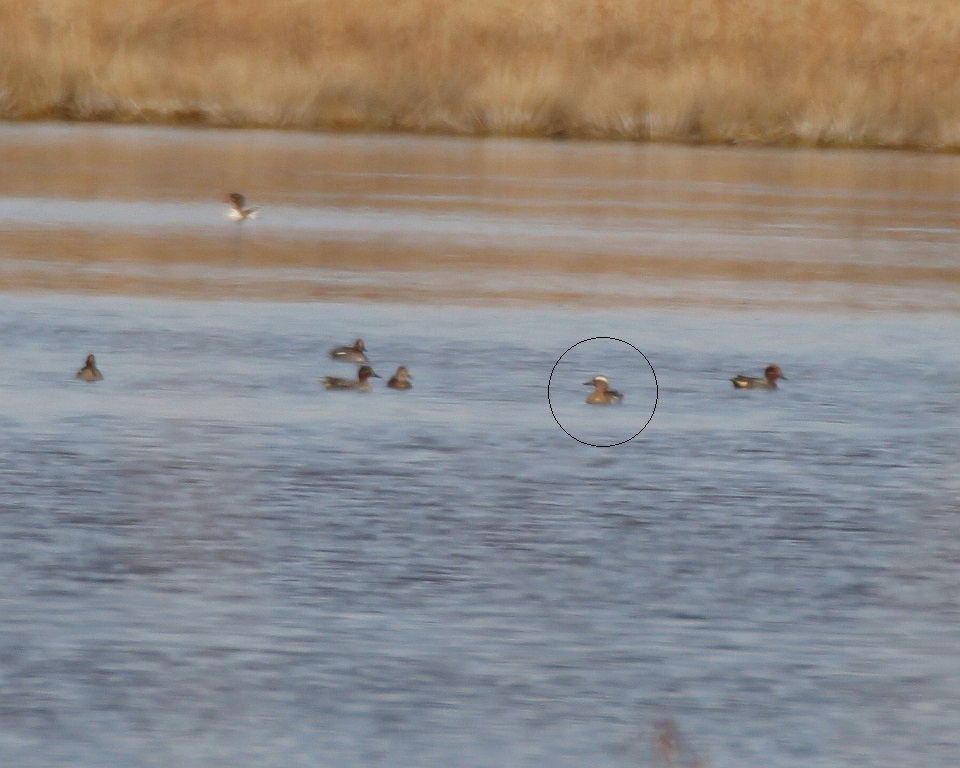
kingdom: Animalia
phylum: Chordata
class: Aves
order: Anseriformes
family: Anatidae
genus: Spatula
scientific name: Spatula querquedula
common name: Garganey
